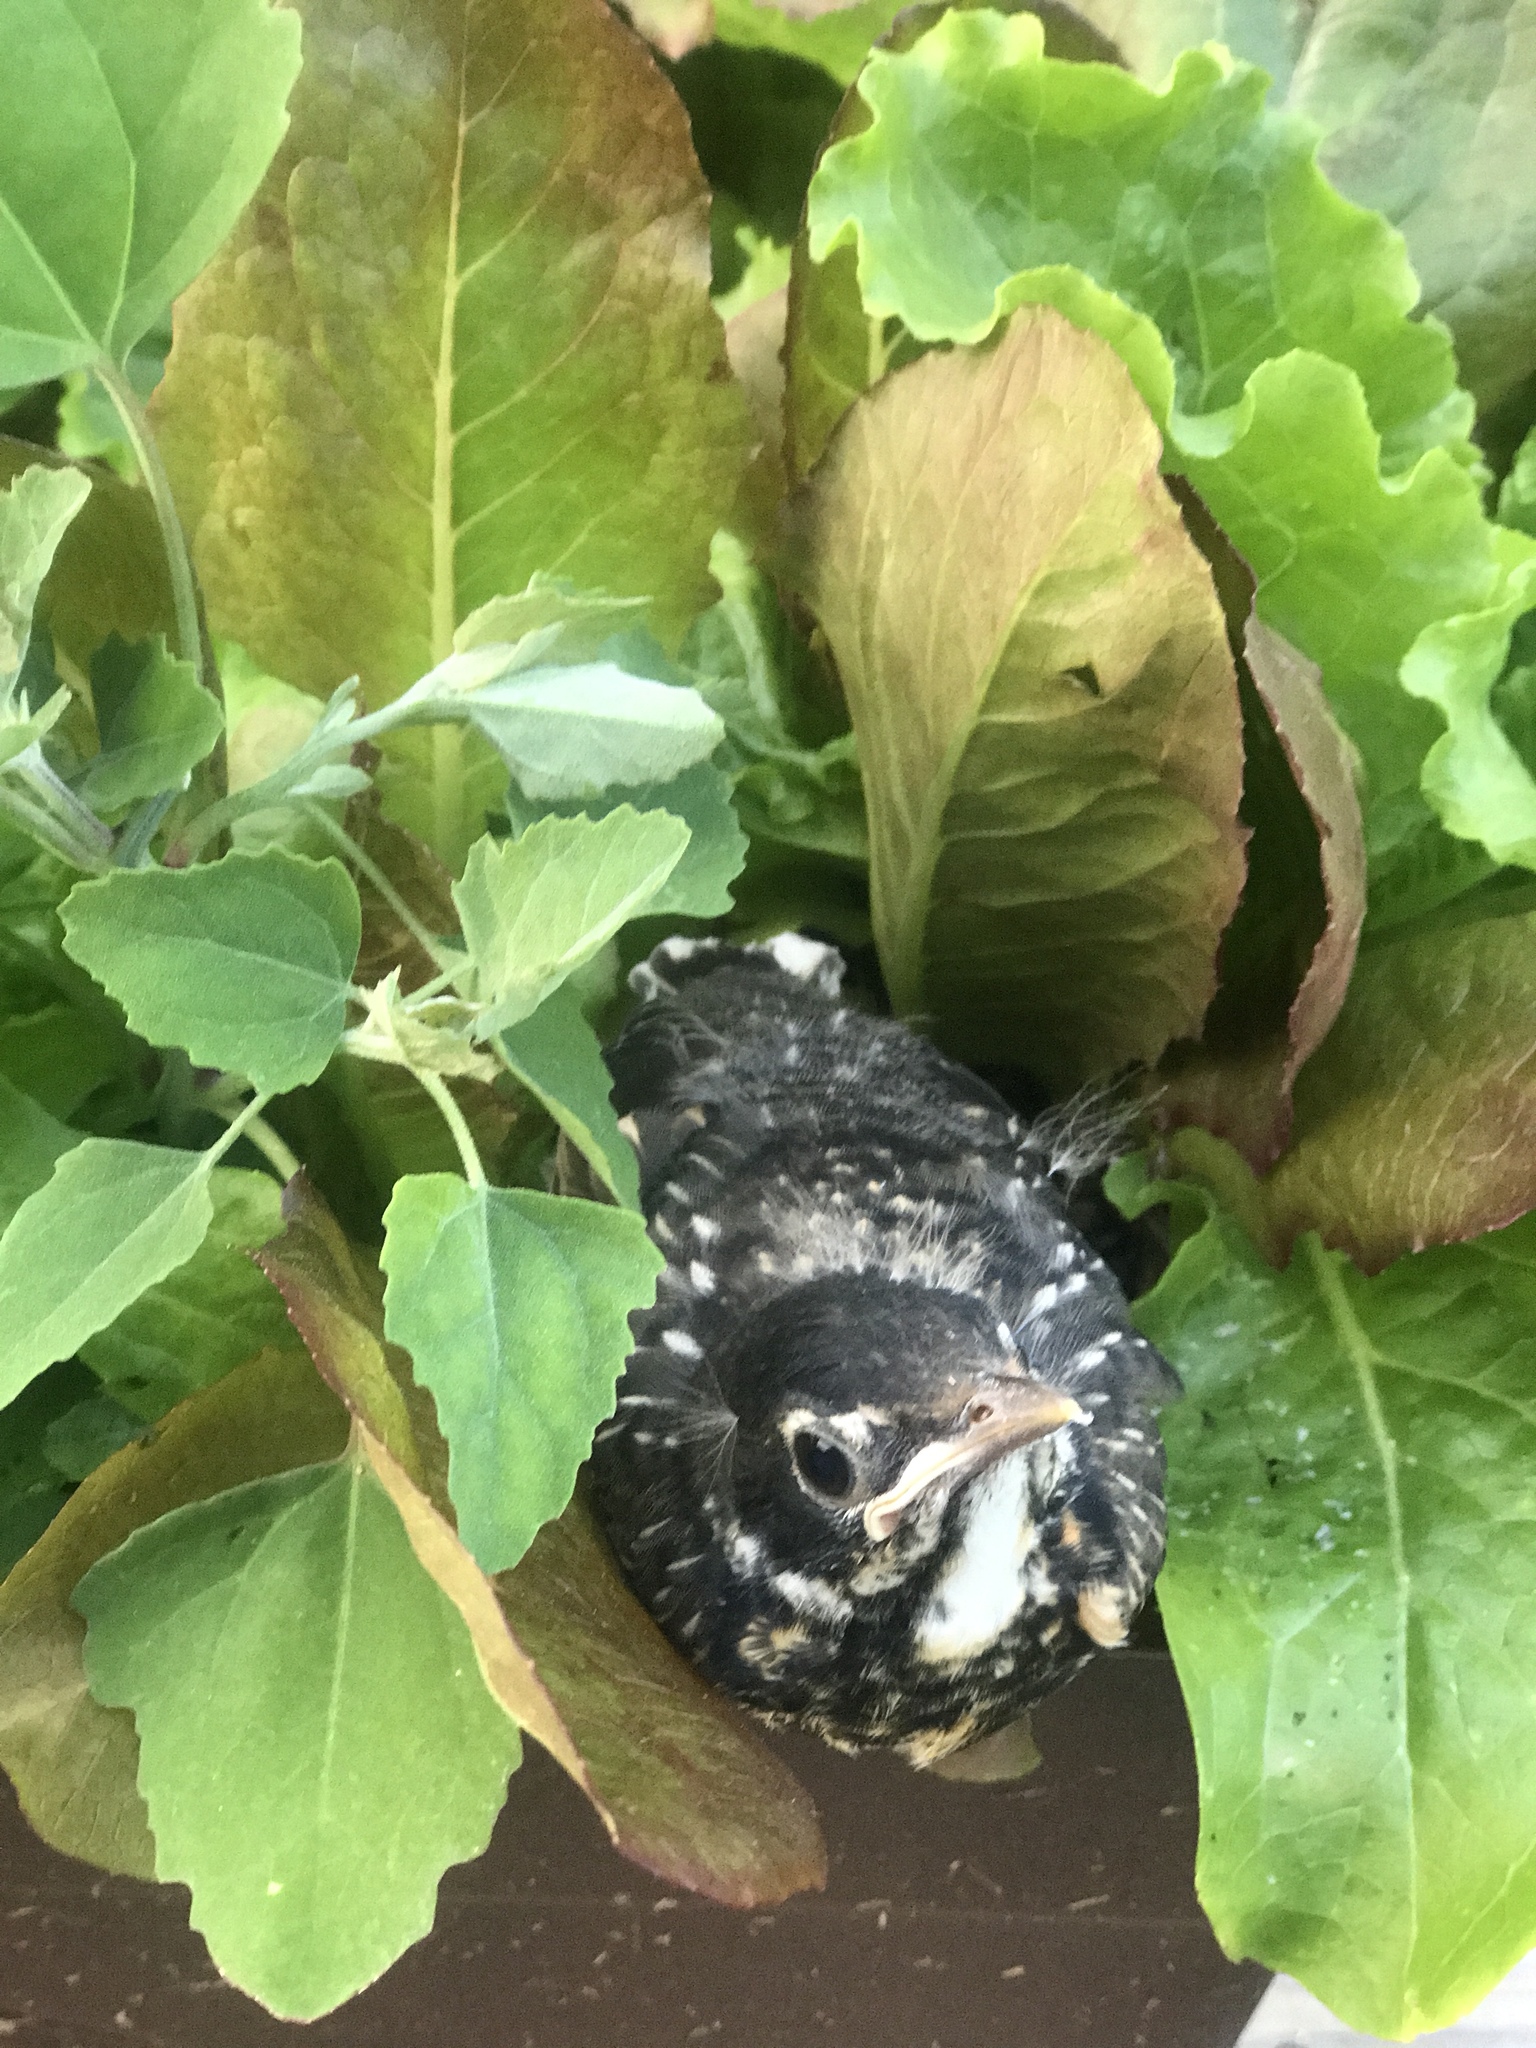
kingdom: Animalia
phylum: Chordata
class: Aves
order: Passeriformes
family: Turdidae
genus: Turdus
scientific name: Turdus migratorius
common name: American robin
